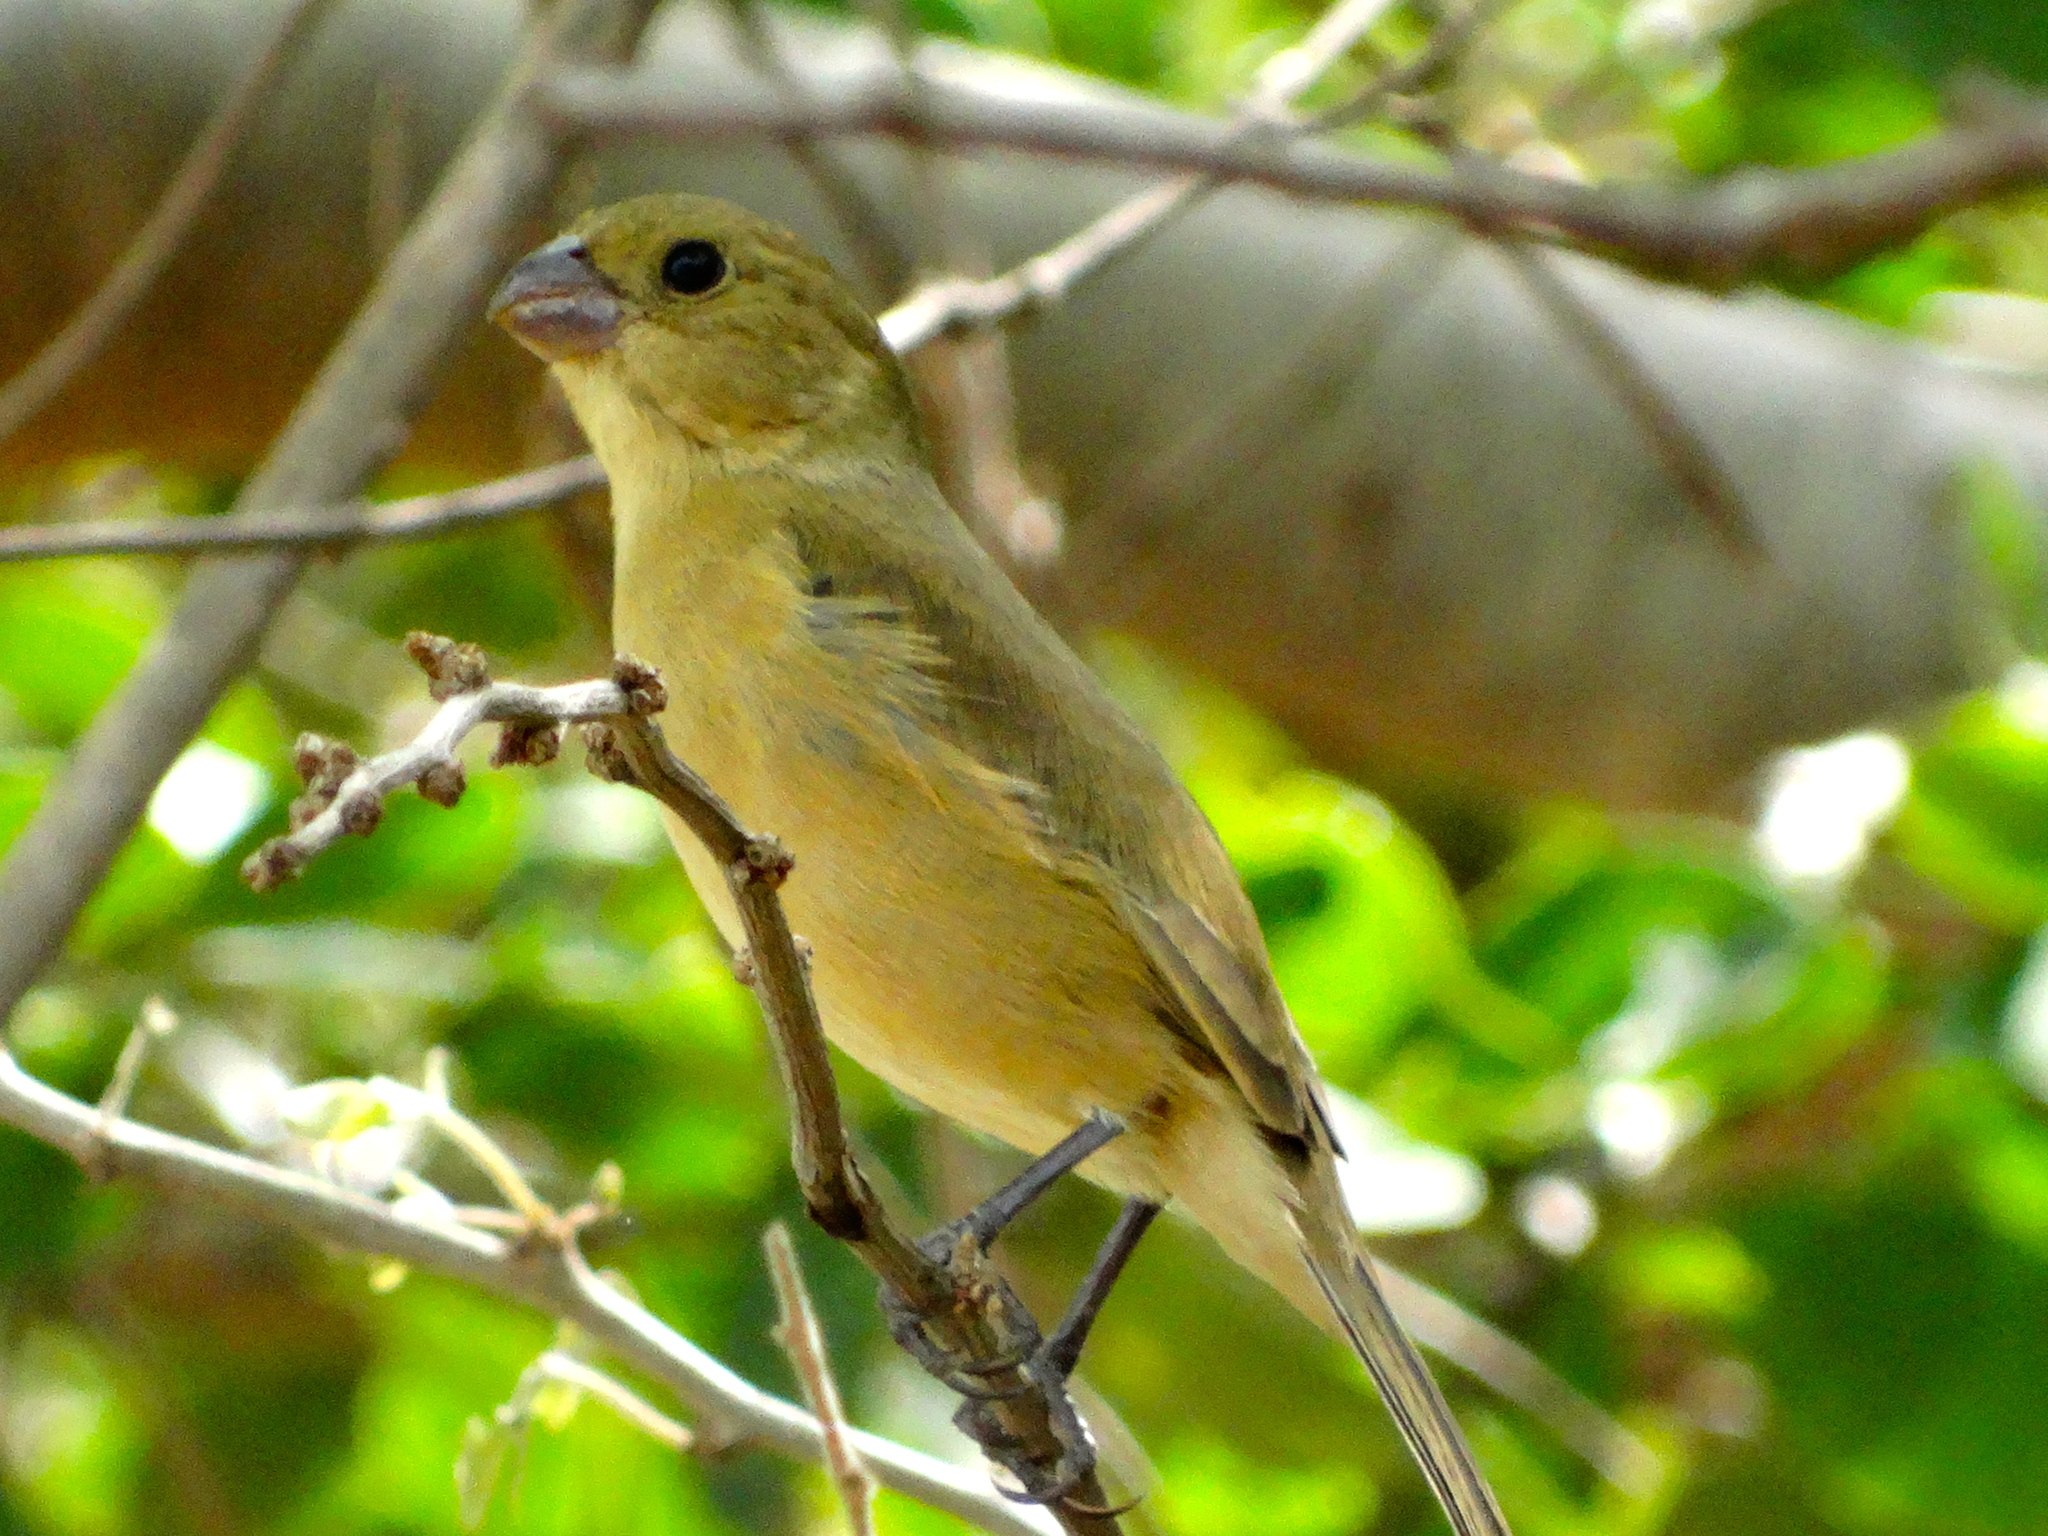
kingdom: Animalia
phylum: Chordata
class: Aves
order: Passeriformes
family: Thraupidae
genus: Sporophila
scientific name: Sporophila torqueola
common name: White-collared seedeater
